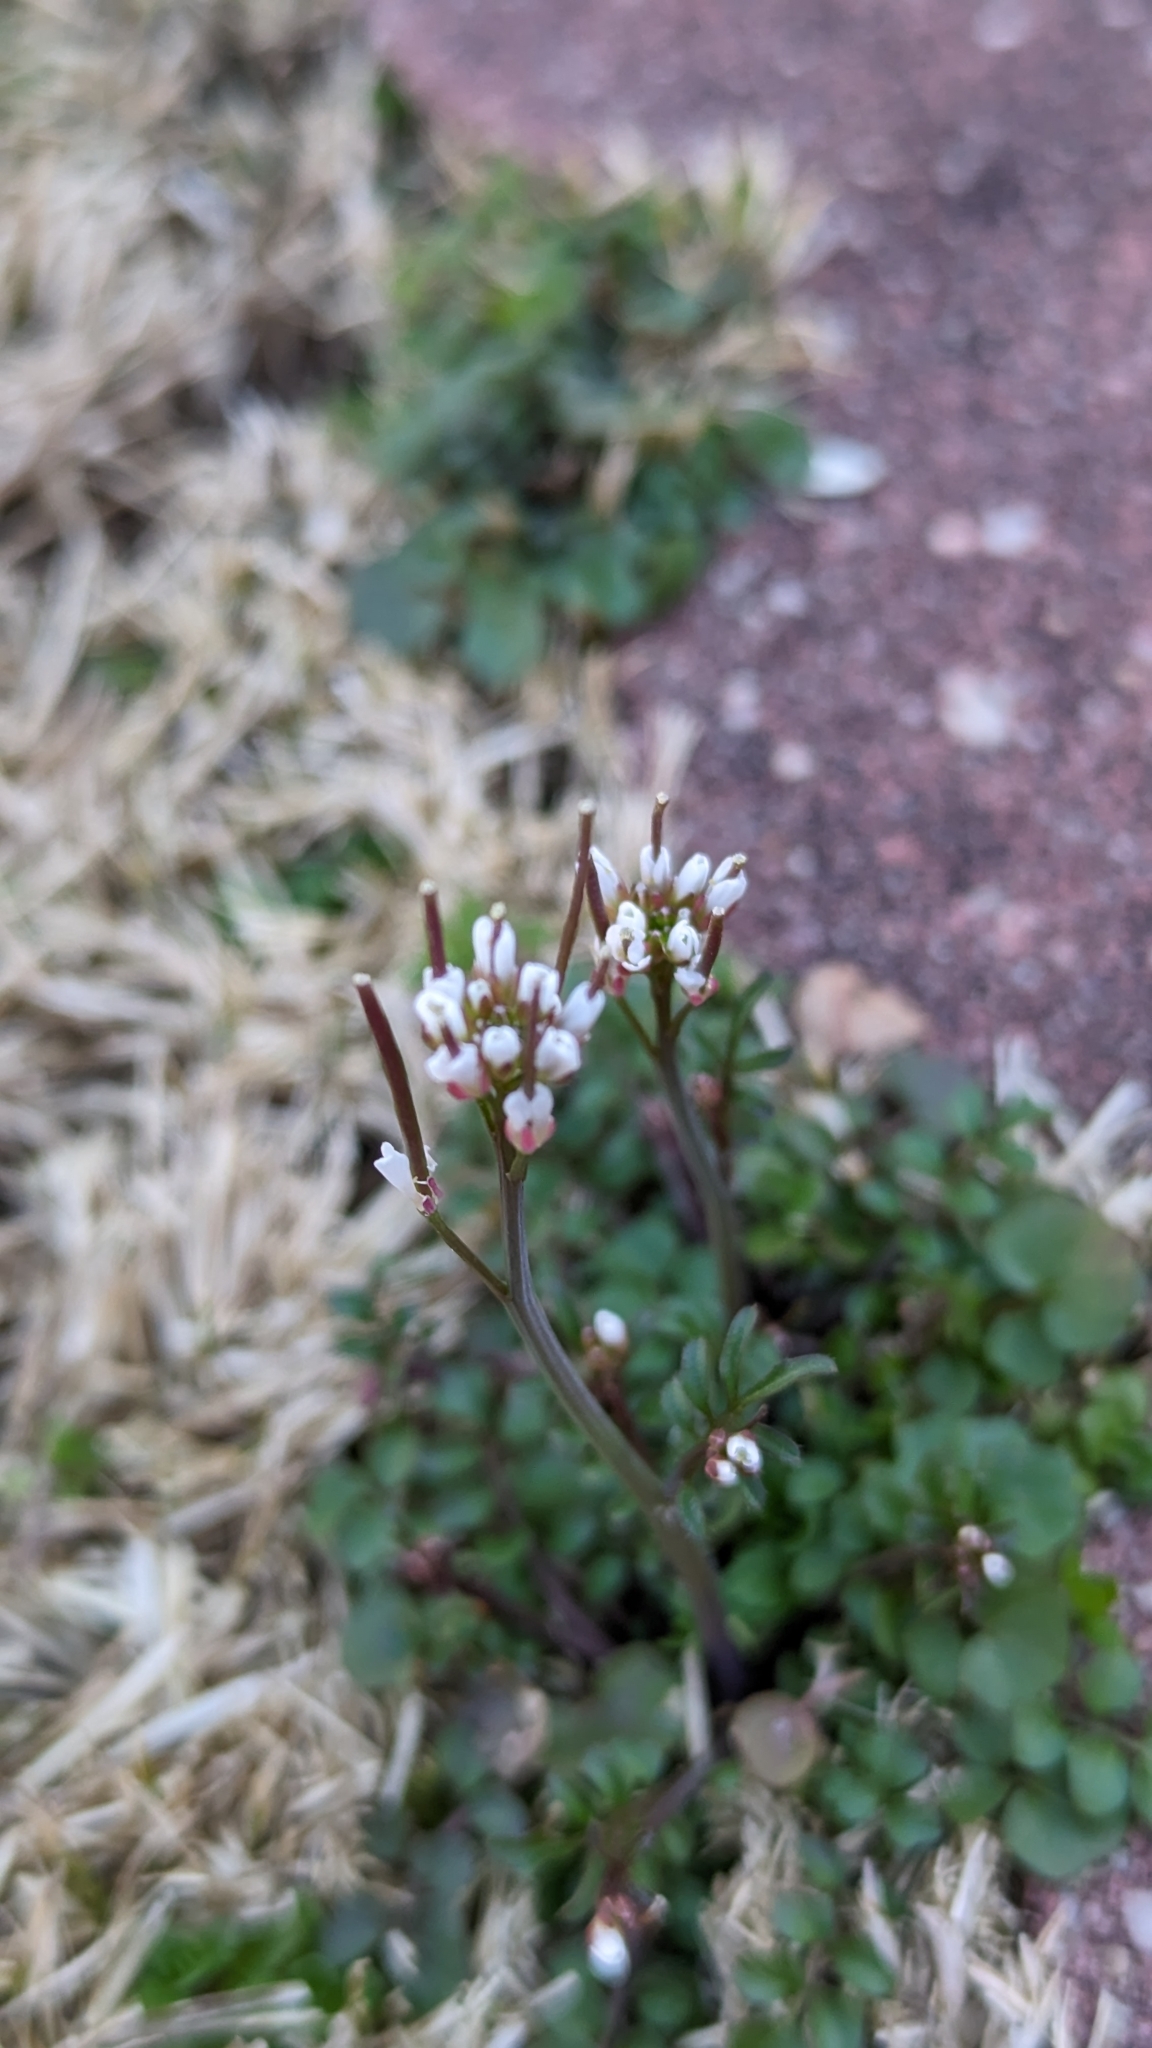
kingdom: Plantae
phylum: Tracheophyta
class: Magnoliopsida
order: Brassicales
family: Brassicaceae
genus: Cardamine
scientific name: Cardamine hirsuta
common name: Hairy bittercress
